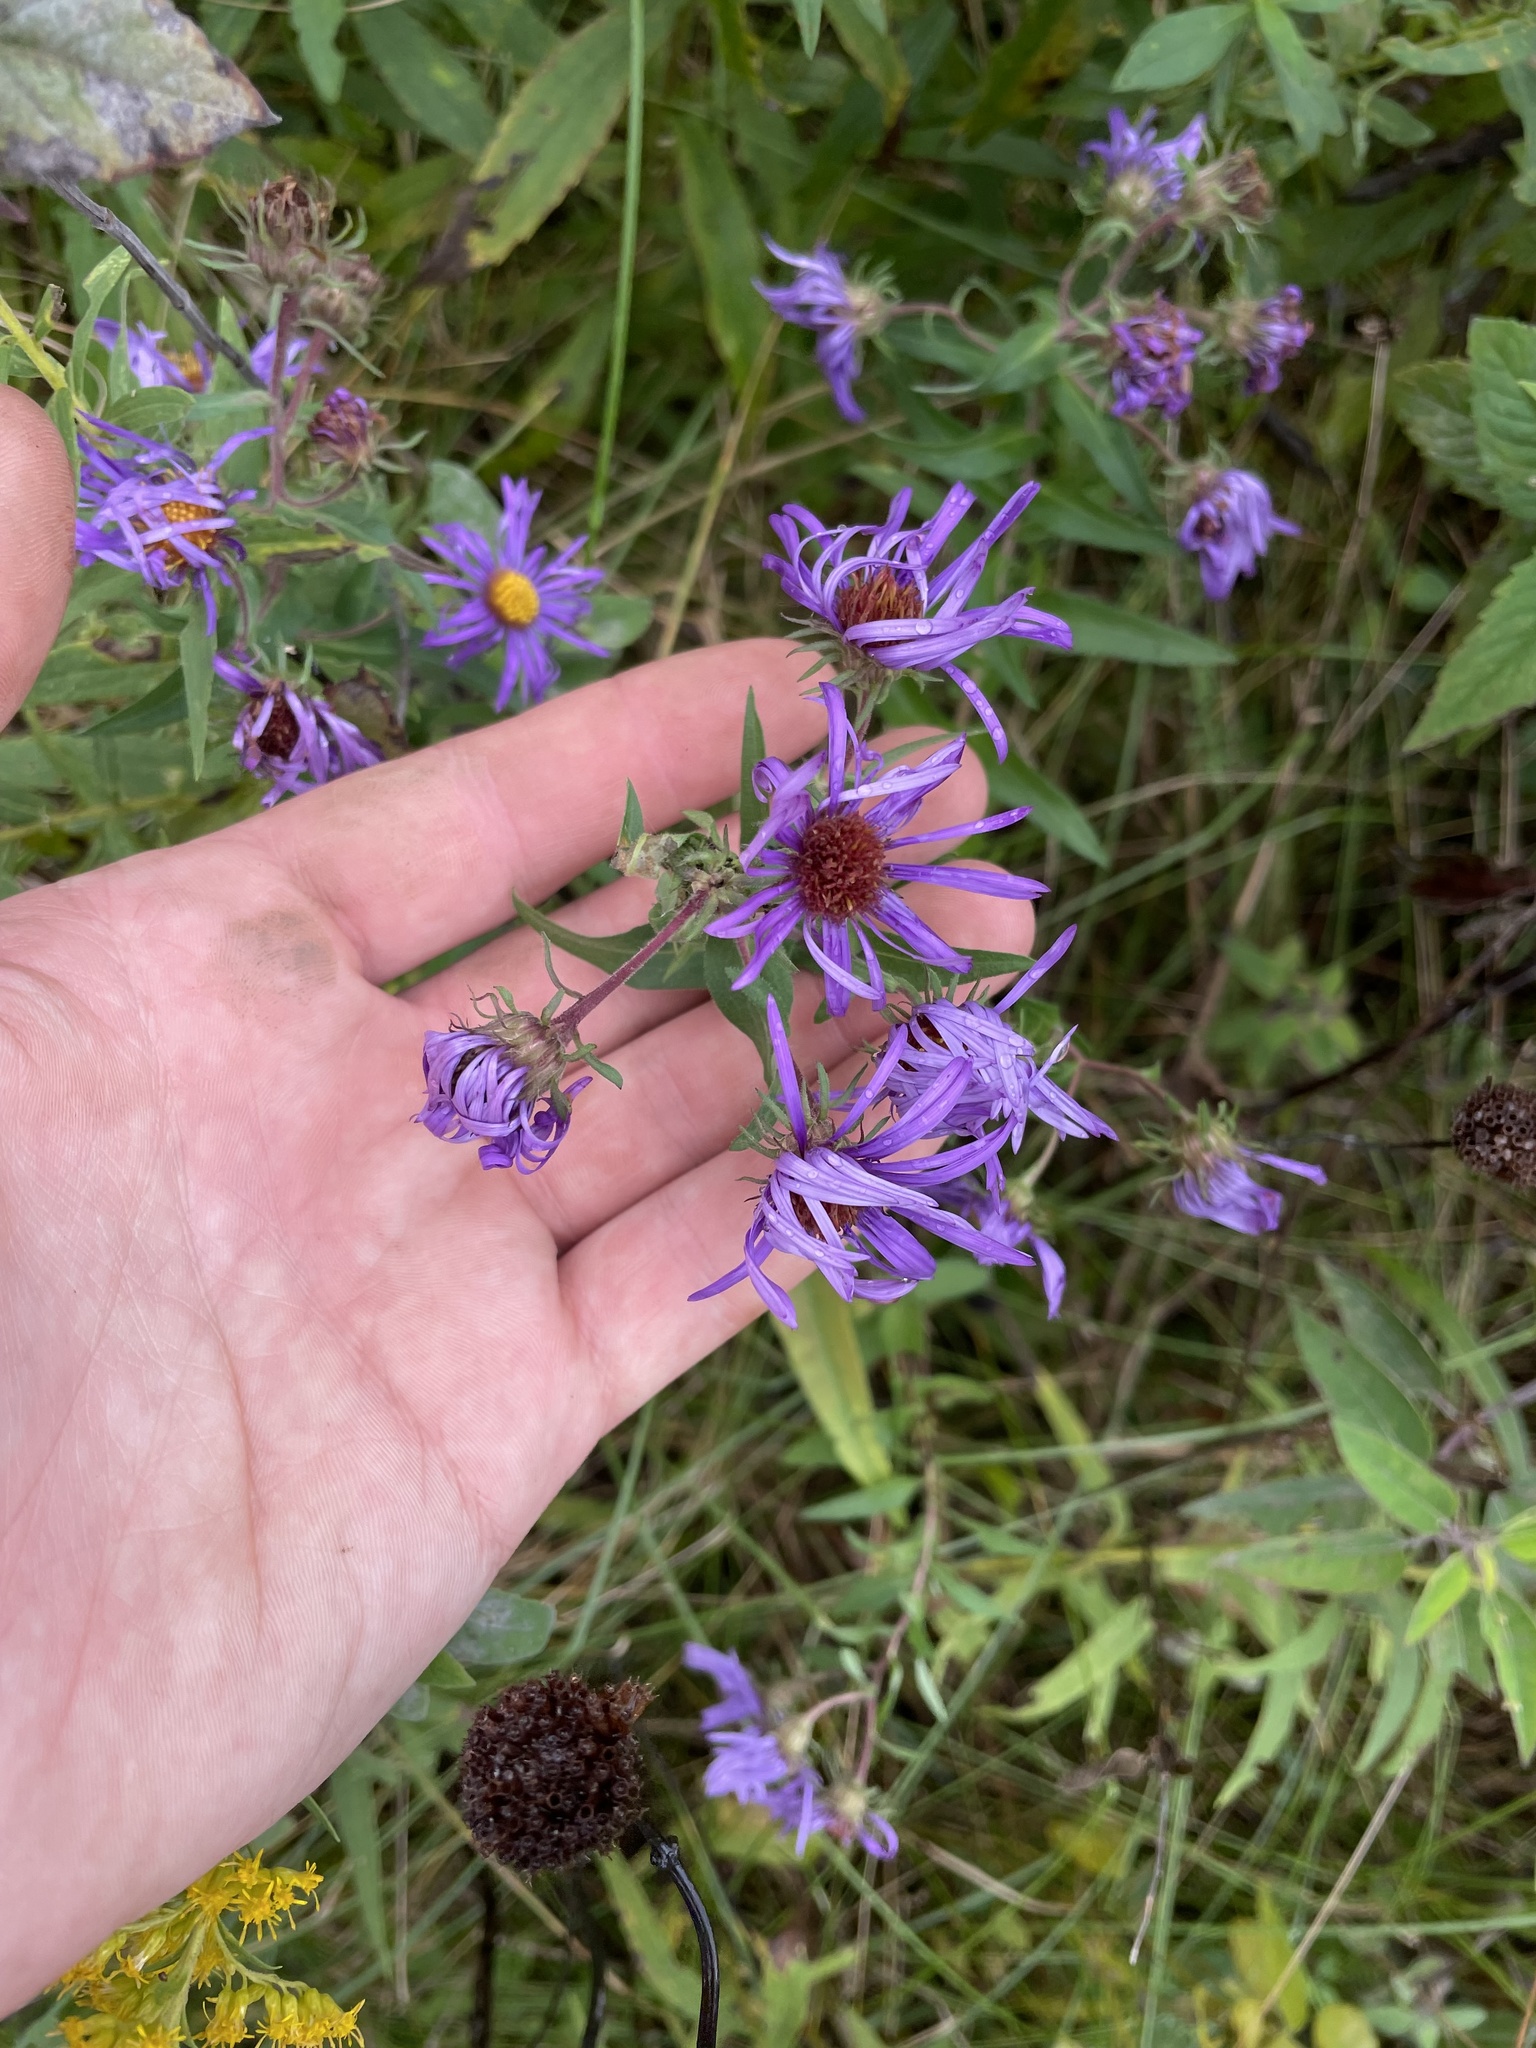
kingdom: Plantae
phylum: Tracheophyta
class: Magnoliopsida
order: Asterales
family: Asteraceae
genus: Symphyotrichum
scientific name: Symphyotrichum novae-angliae
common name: Michaelmas daisy
